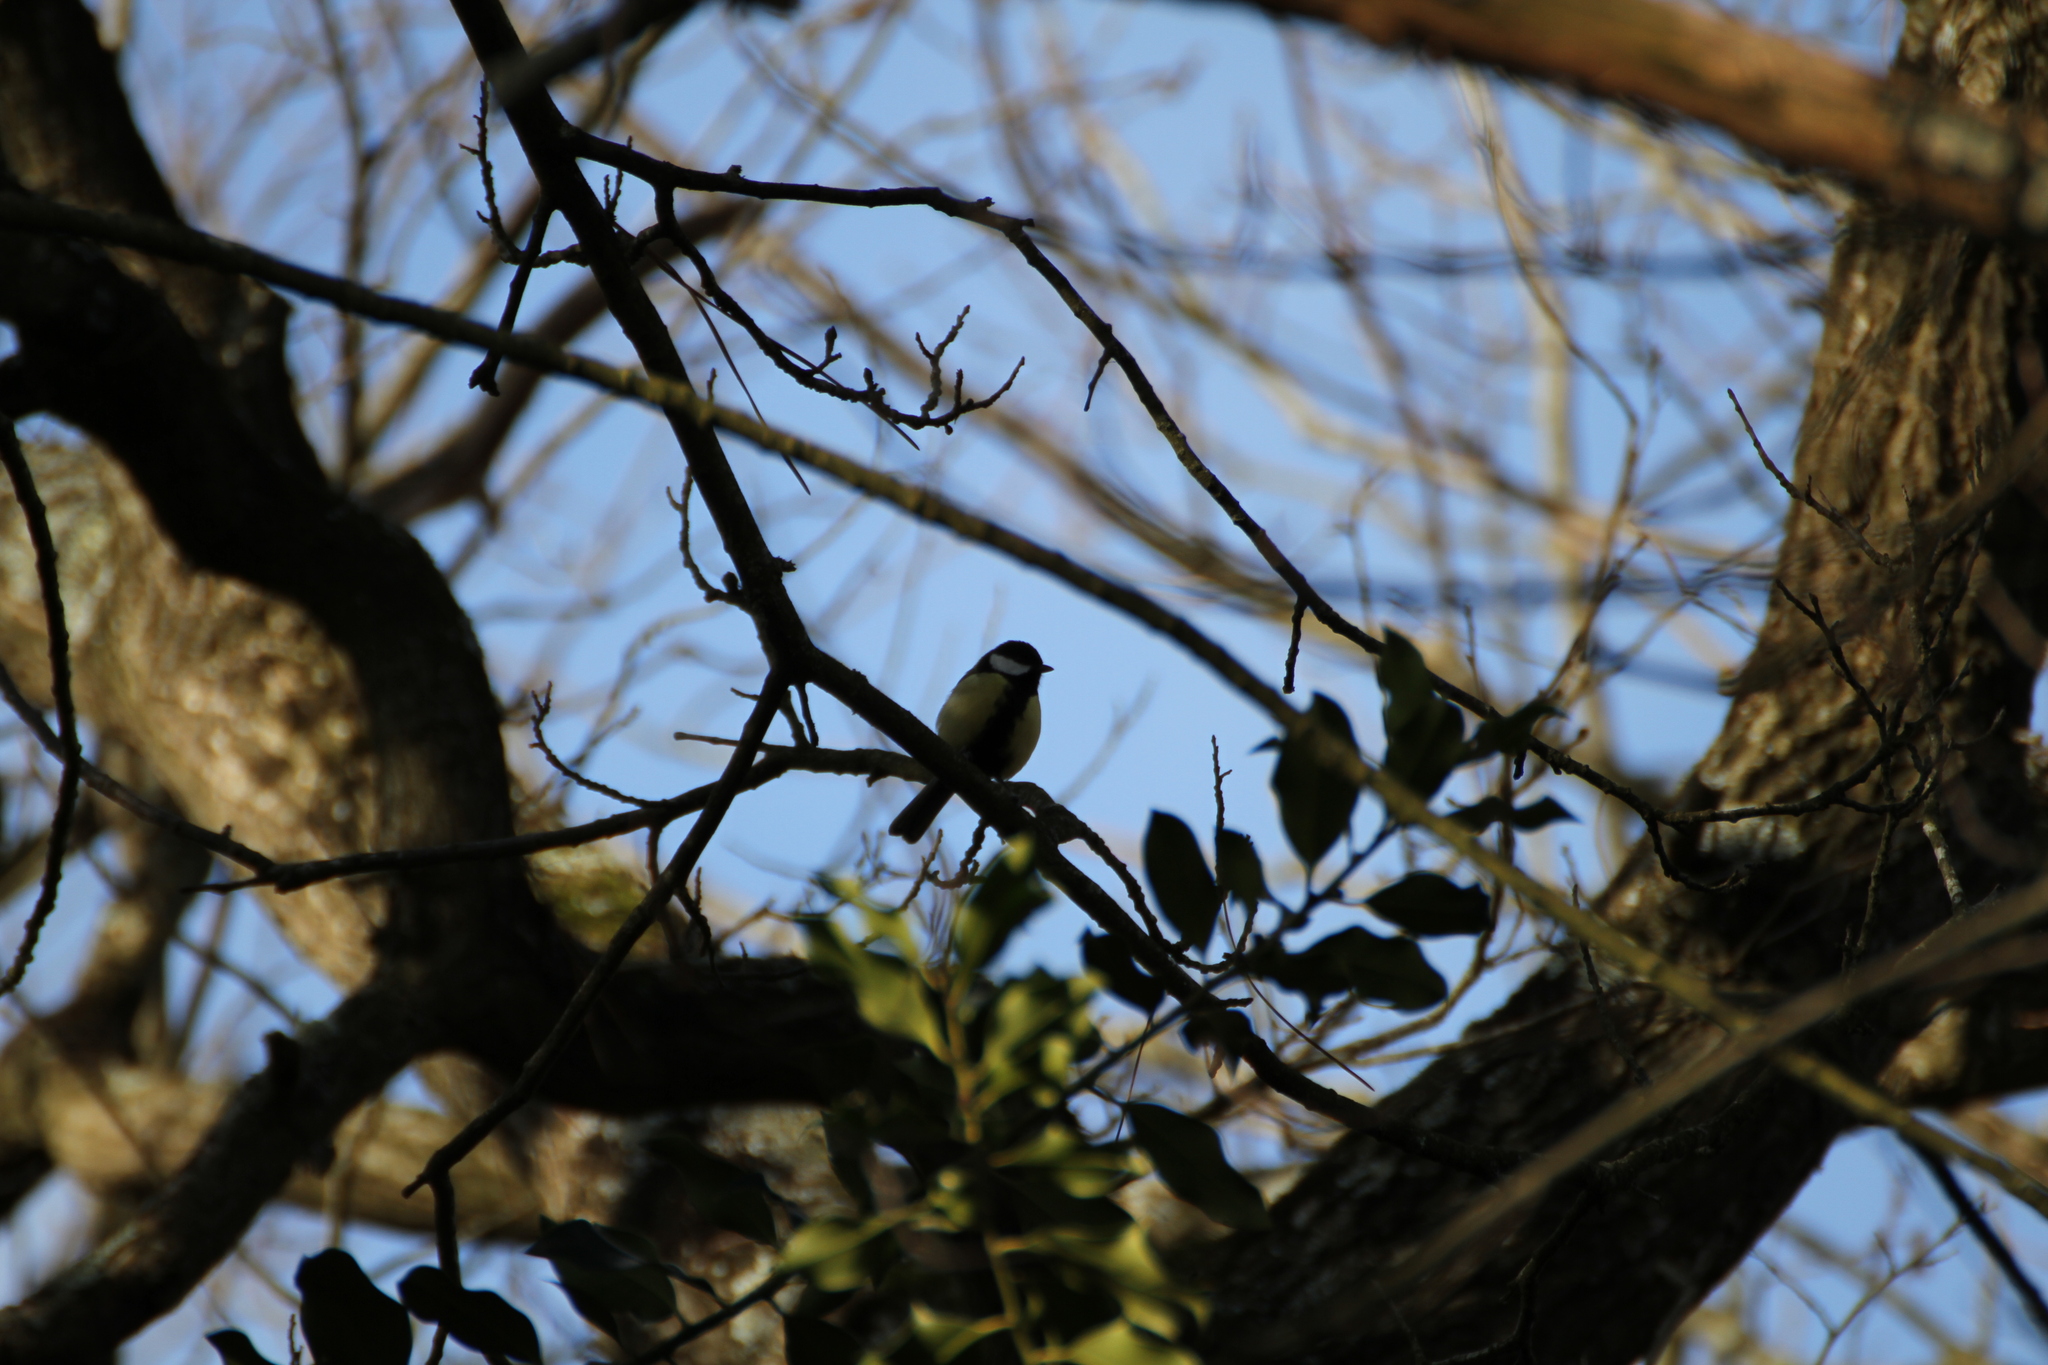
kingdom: Animalia
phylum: Chordata
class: Aves
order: Passeriformes
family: Paridae
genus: Parus
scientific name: Parus major
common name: Great tit
